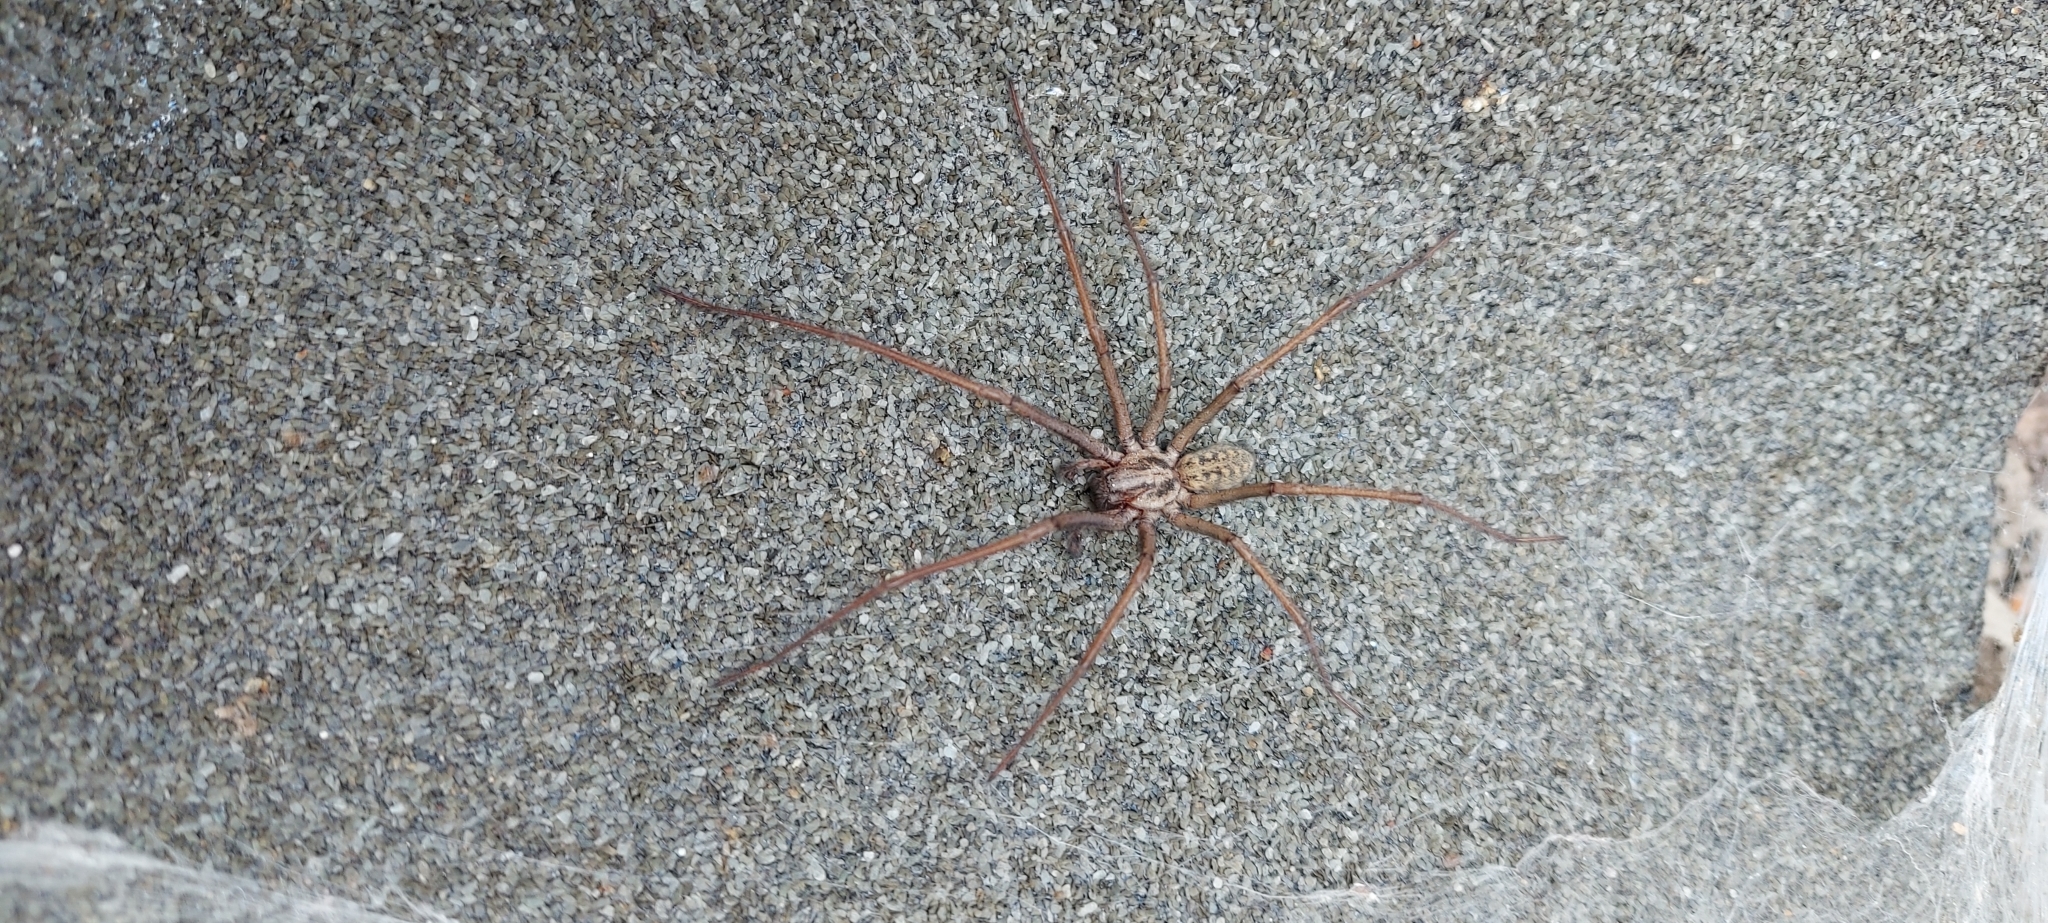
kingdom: Animalia
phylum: Arthropoda
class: Arachnida
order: Araneae
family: Agelenidae
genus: Eratigena
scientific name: Eratigena
